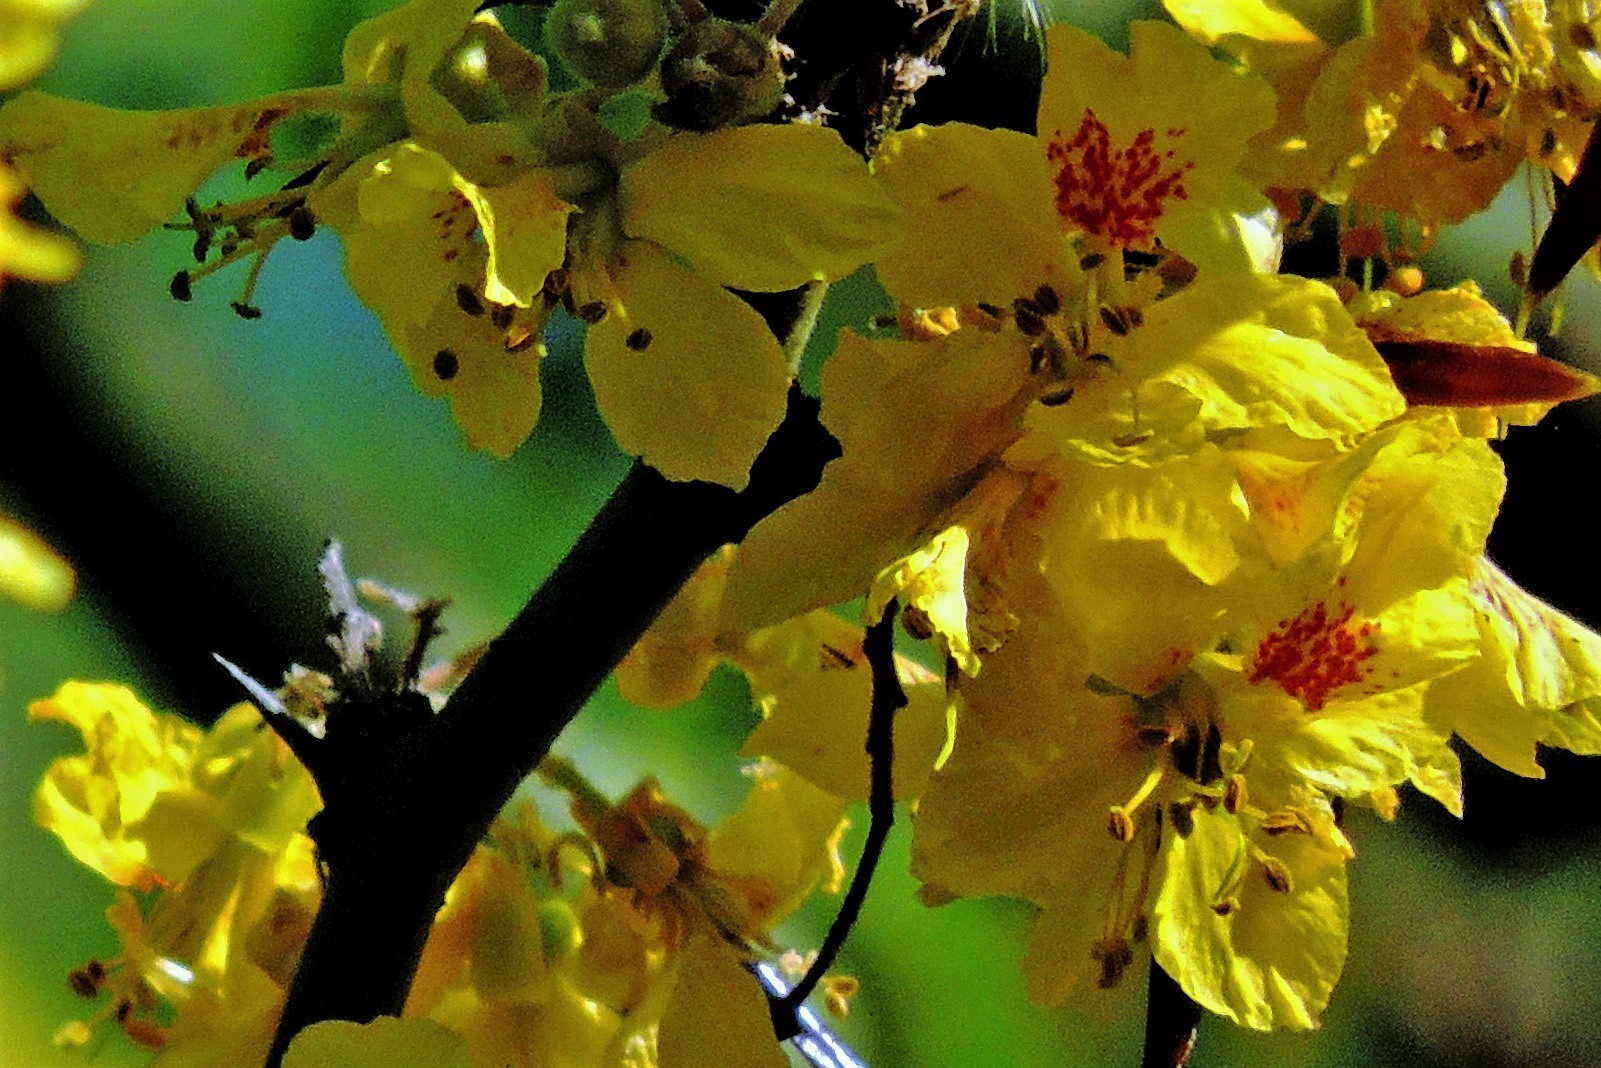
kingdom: Plantae
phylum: Tracheophyta
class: Magnoliopsida
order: Fabales
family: Fabaceae
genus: Parkinsonia
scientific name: Parkinsonia praecox
